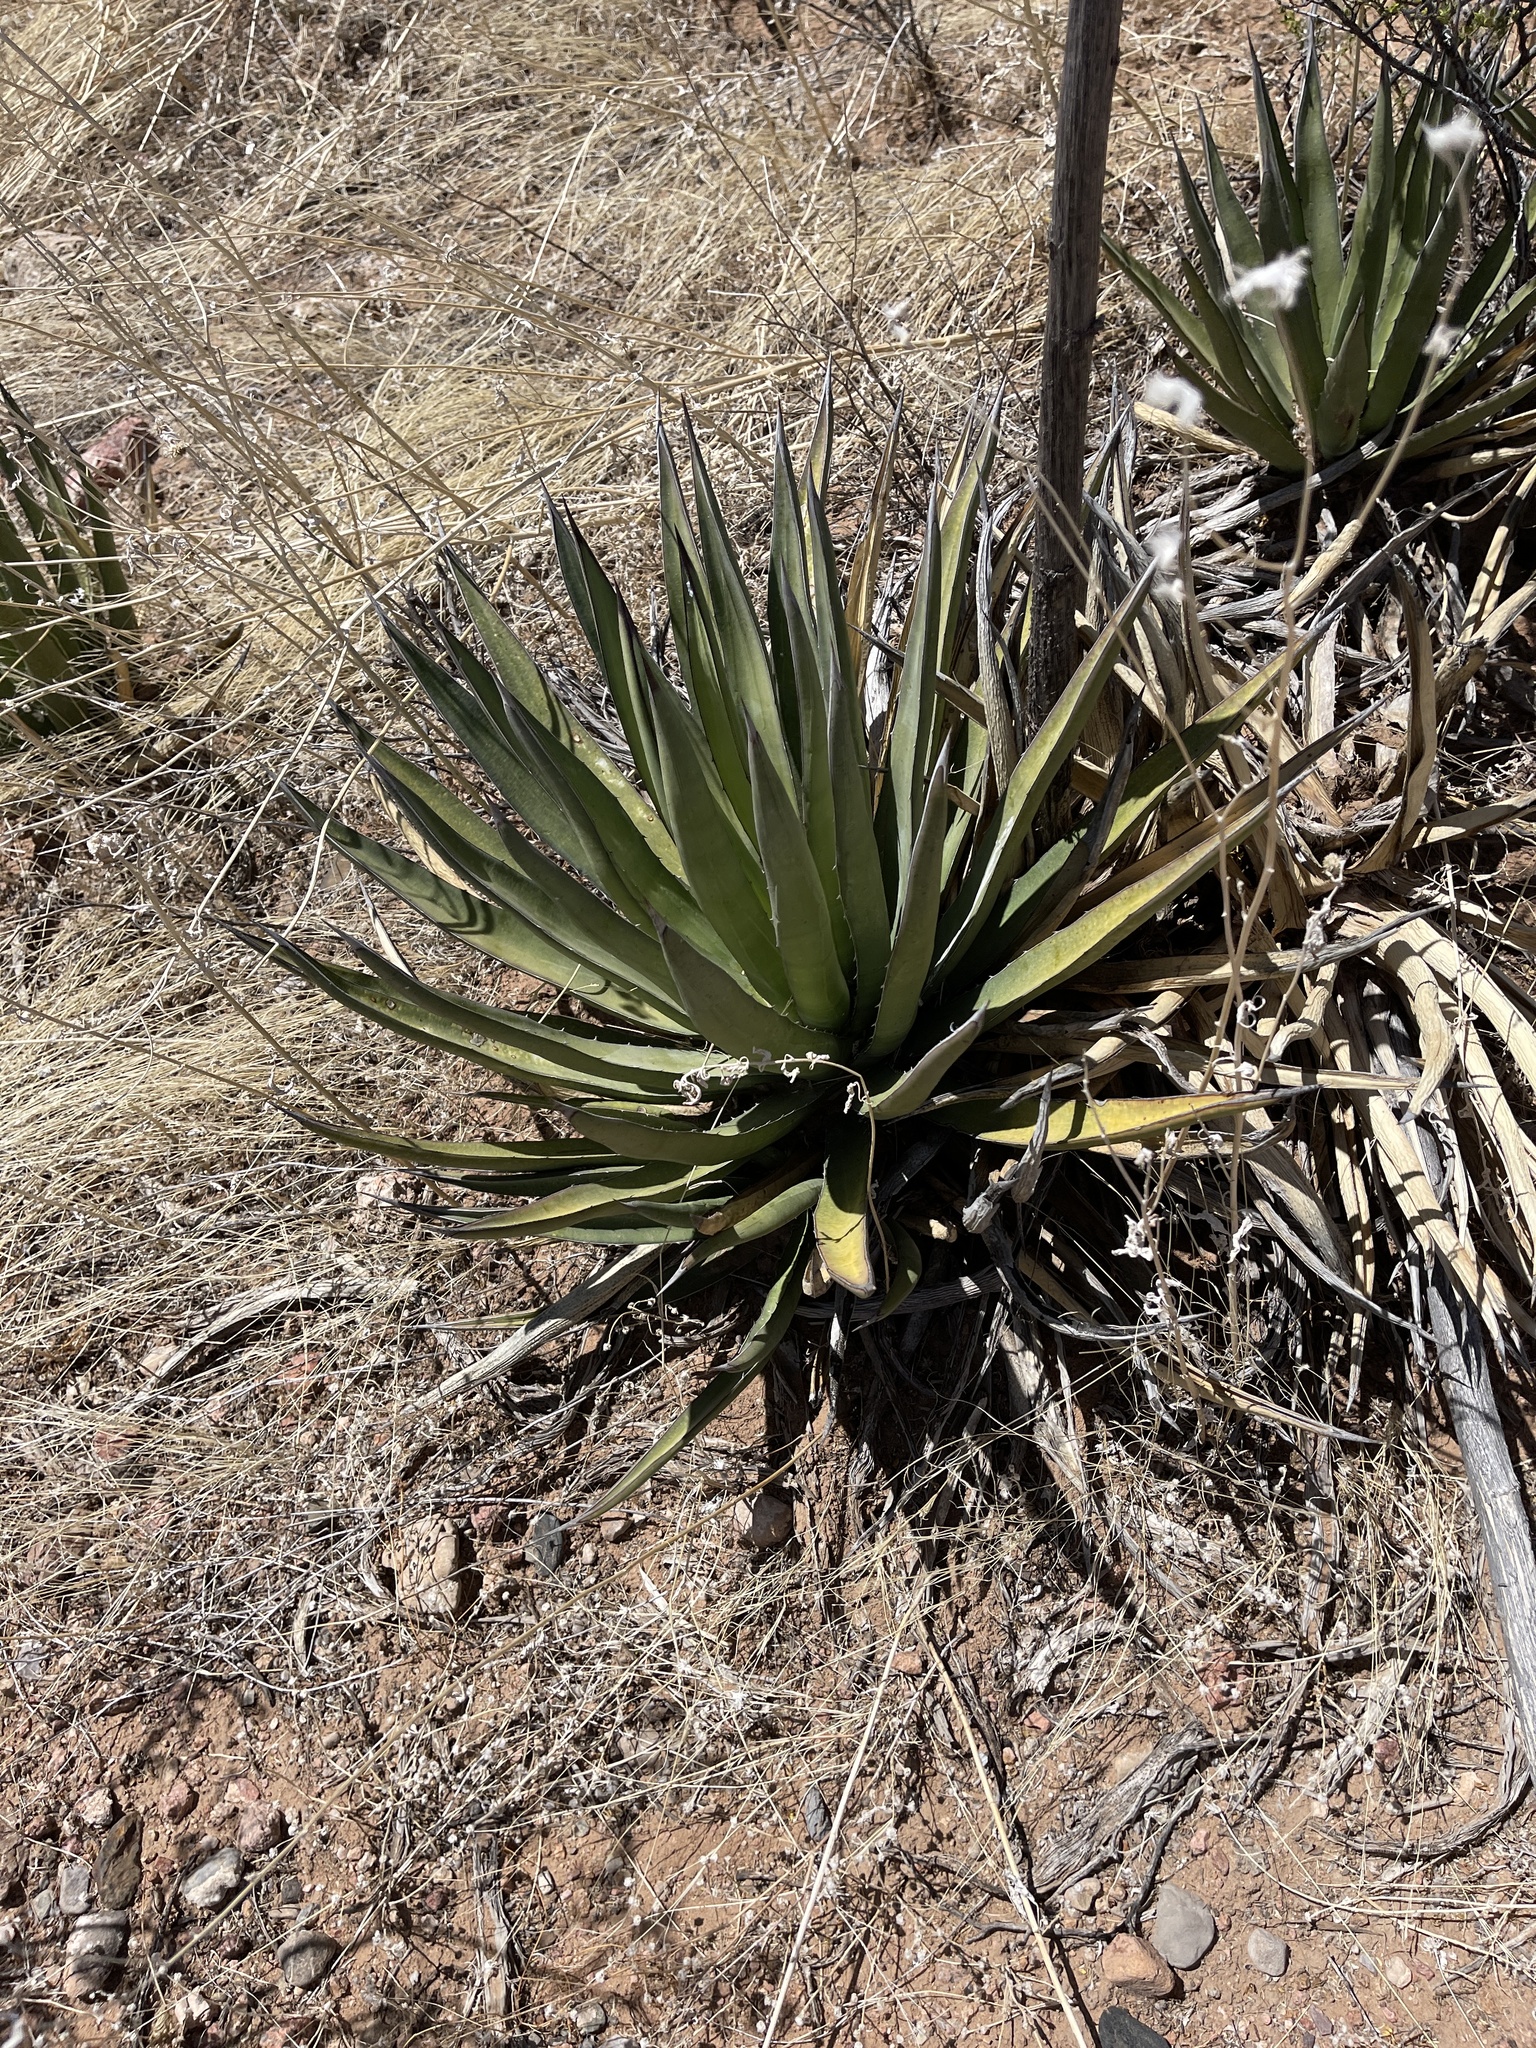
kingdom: Plantae
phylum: Tracheophyta
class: Liliopsida
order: Asparagales
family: Asparagaceae
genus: Agave
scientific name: Agave lechuguilla
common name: Lecheguilla agave
